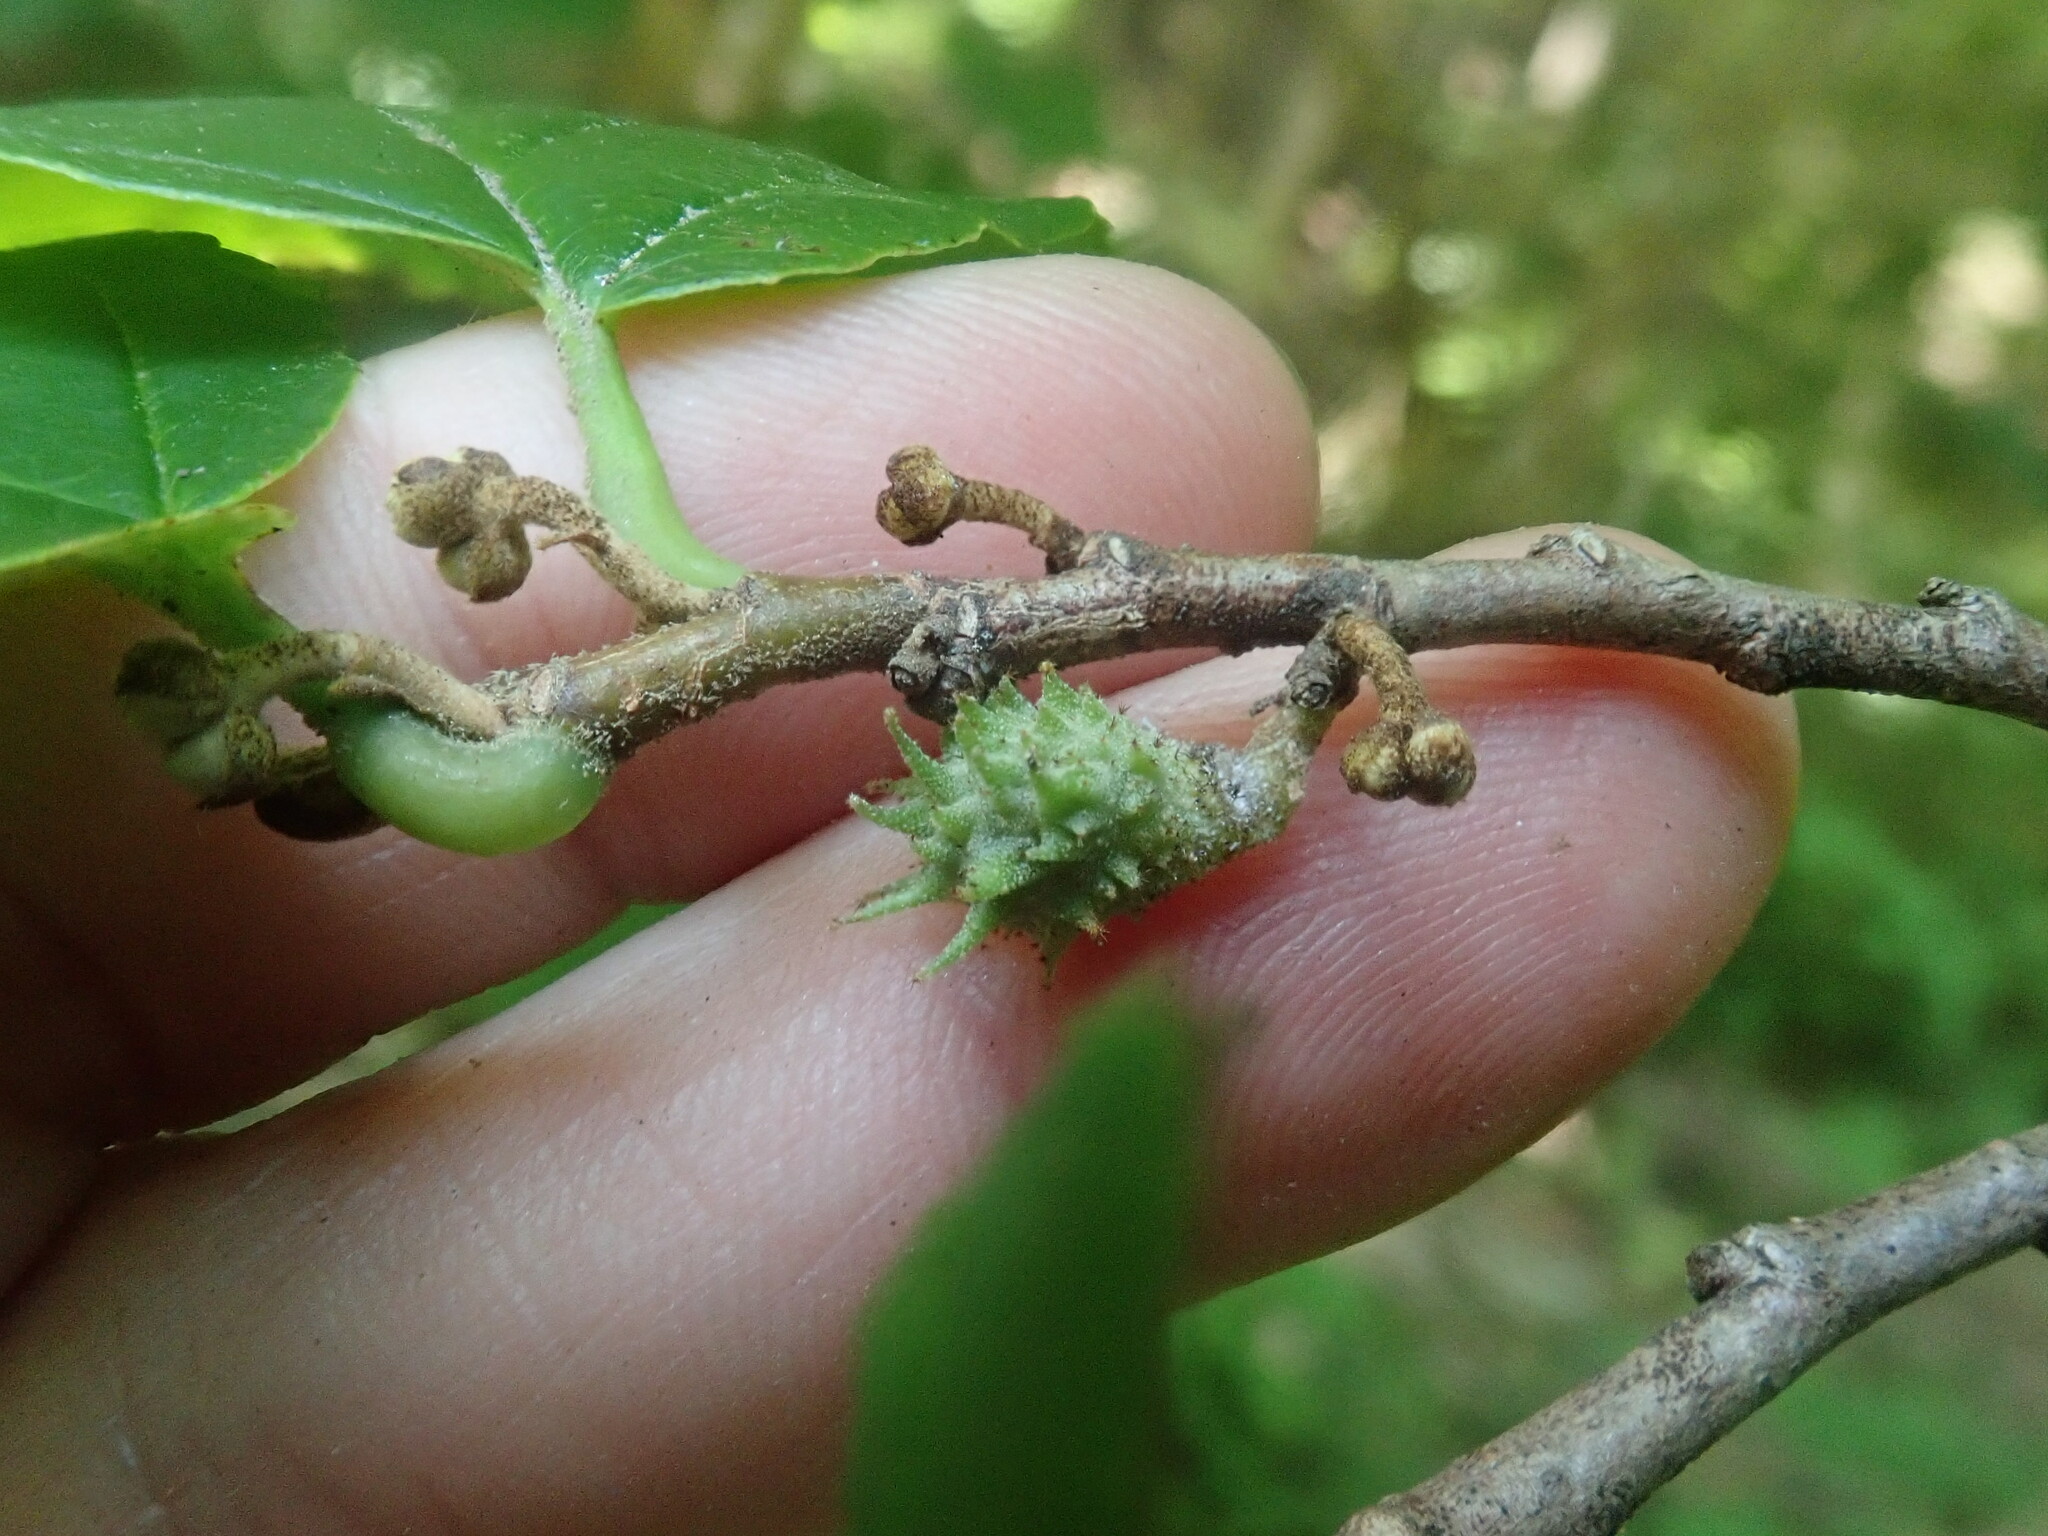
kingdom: Animalia
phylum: Arthropoda
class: Insecta
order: Hemiptera
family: Aphididae
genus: Hamamelistes
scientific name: Hamamelistes spinosus
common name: Witch hazel gall aphid
